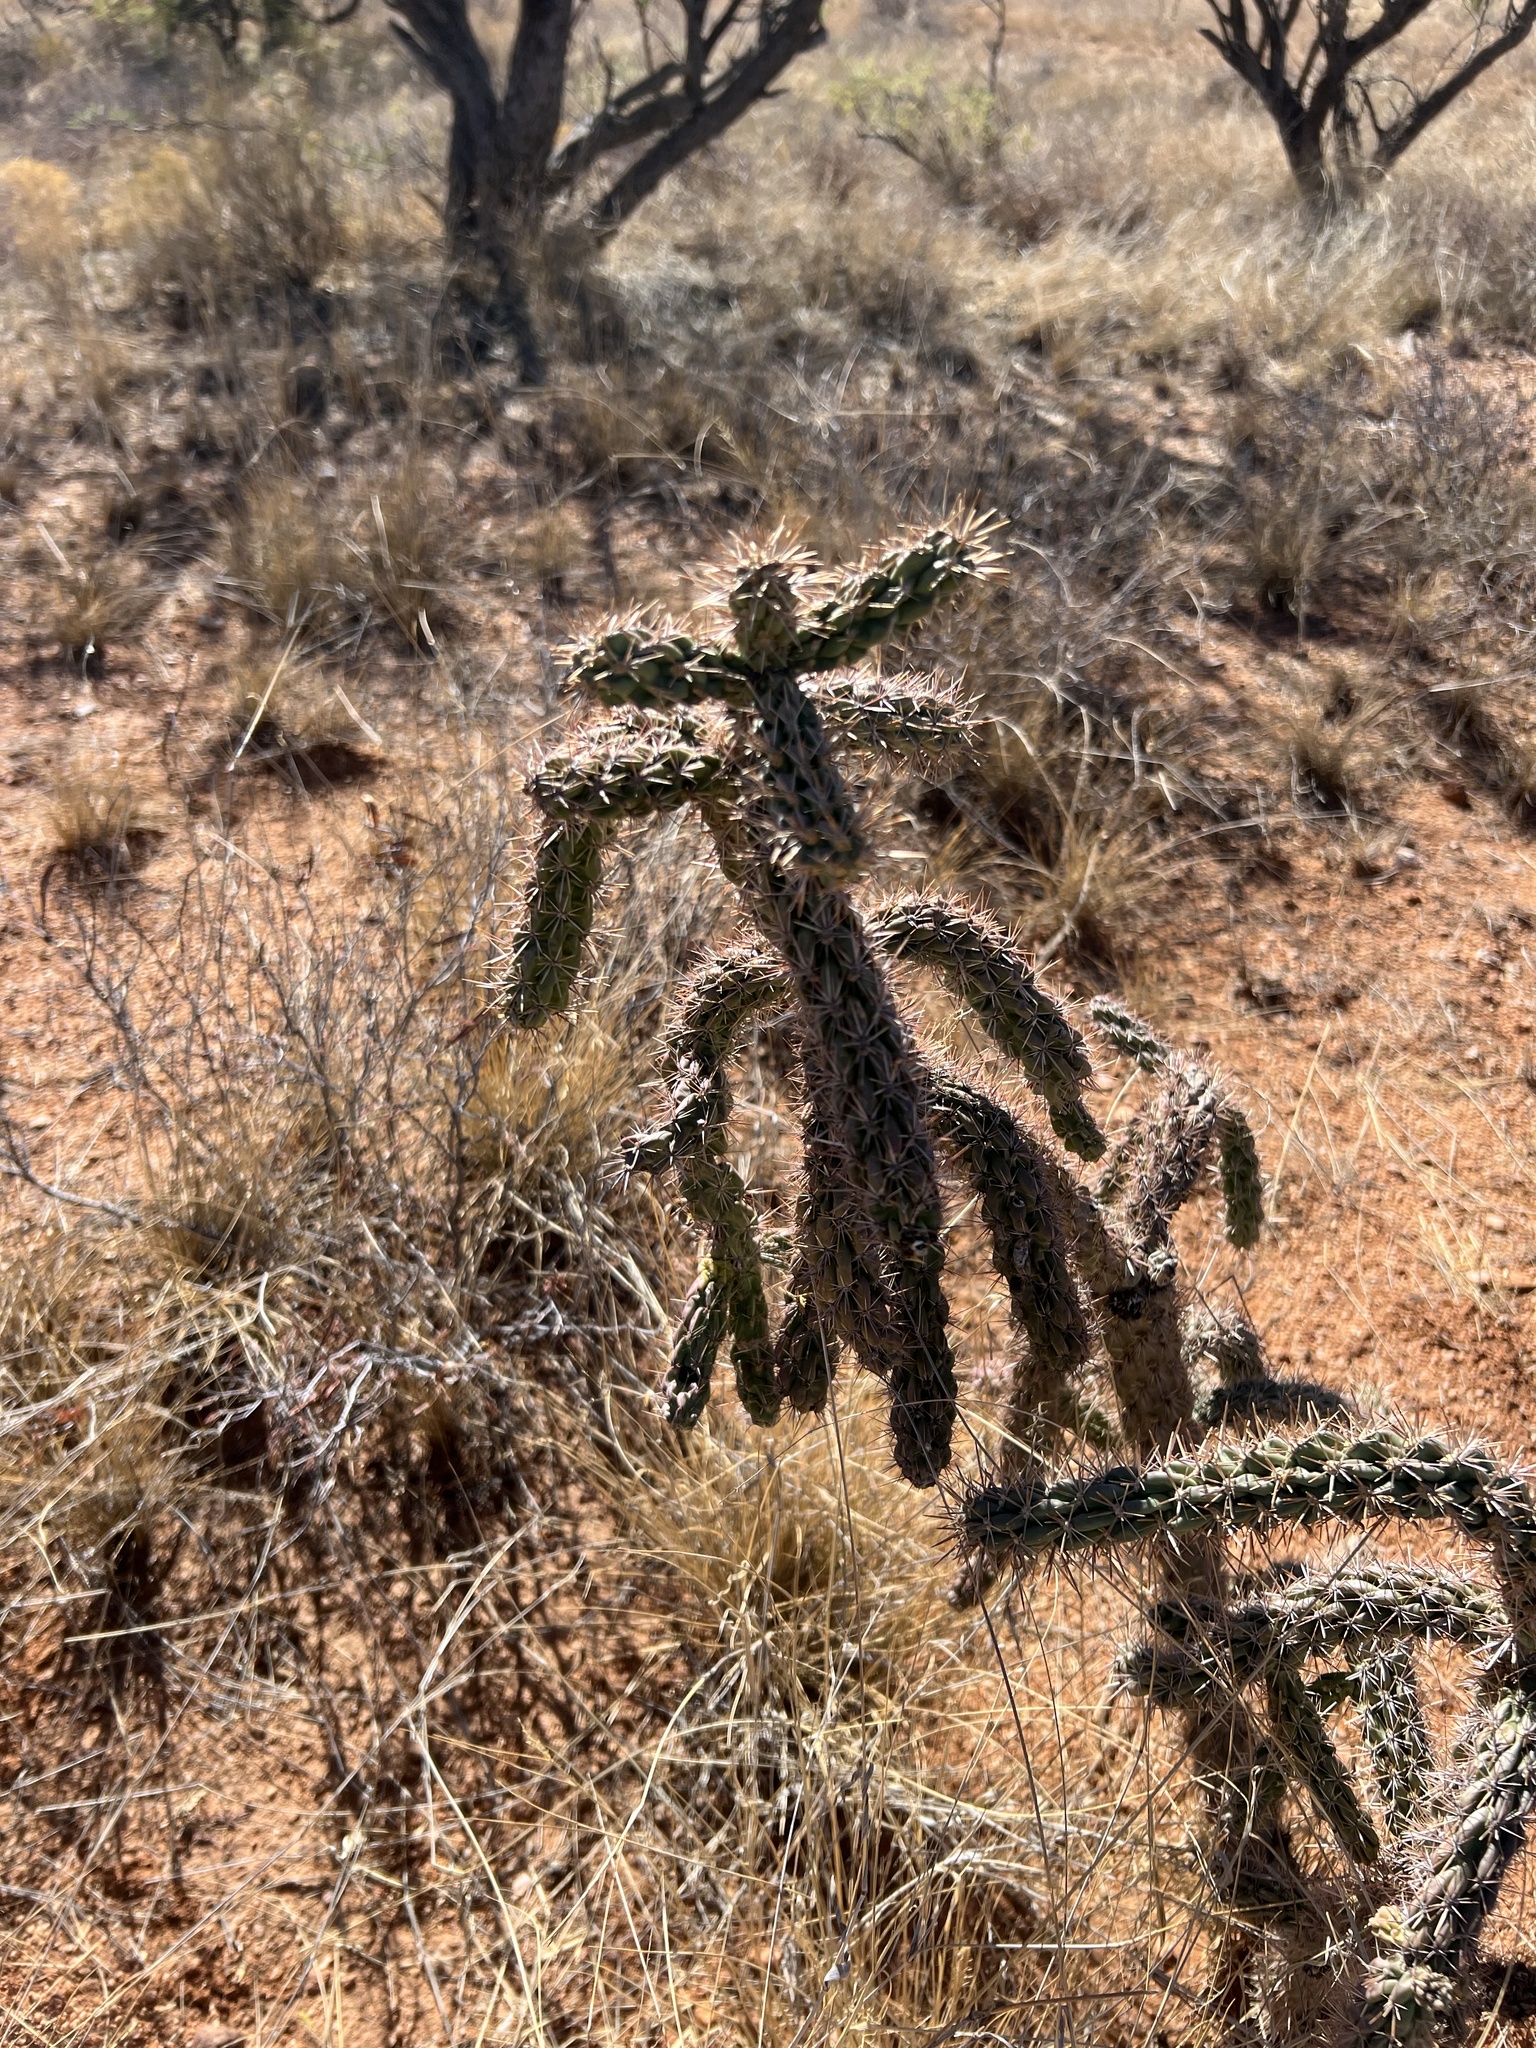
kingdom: Plantae
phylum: Tracheophyta
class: Magnoliopsida
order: Caryophyllales
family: Cactaceae
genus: Cylindropuntia
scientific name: Cylindropuntia imbricata
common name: Candelabrum cactus
